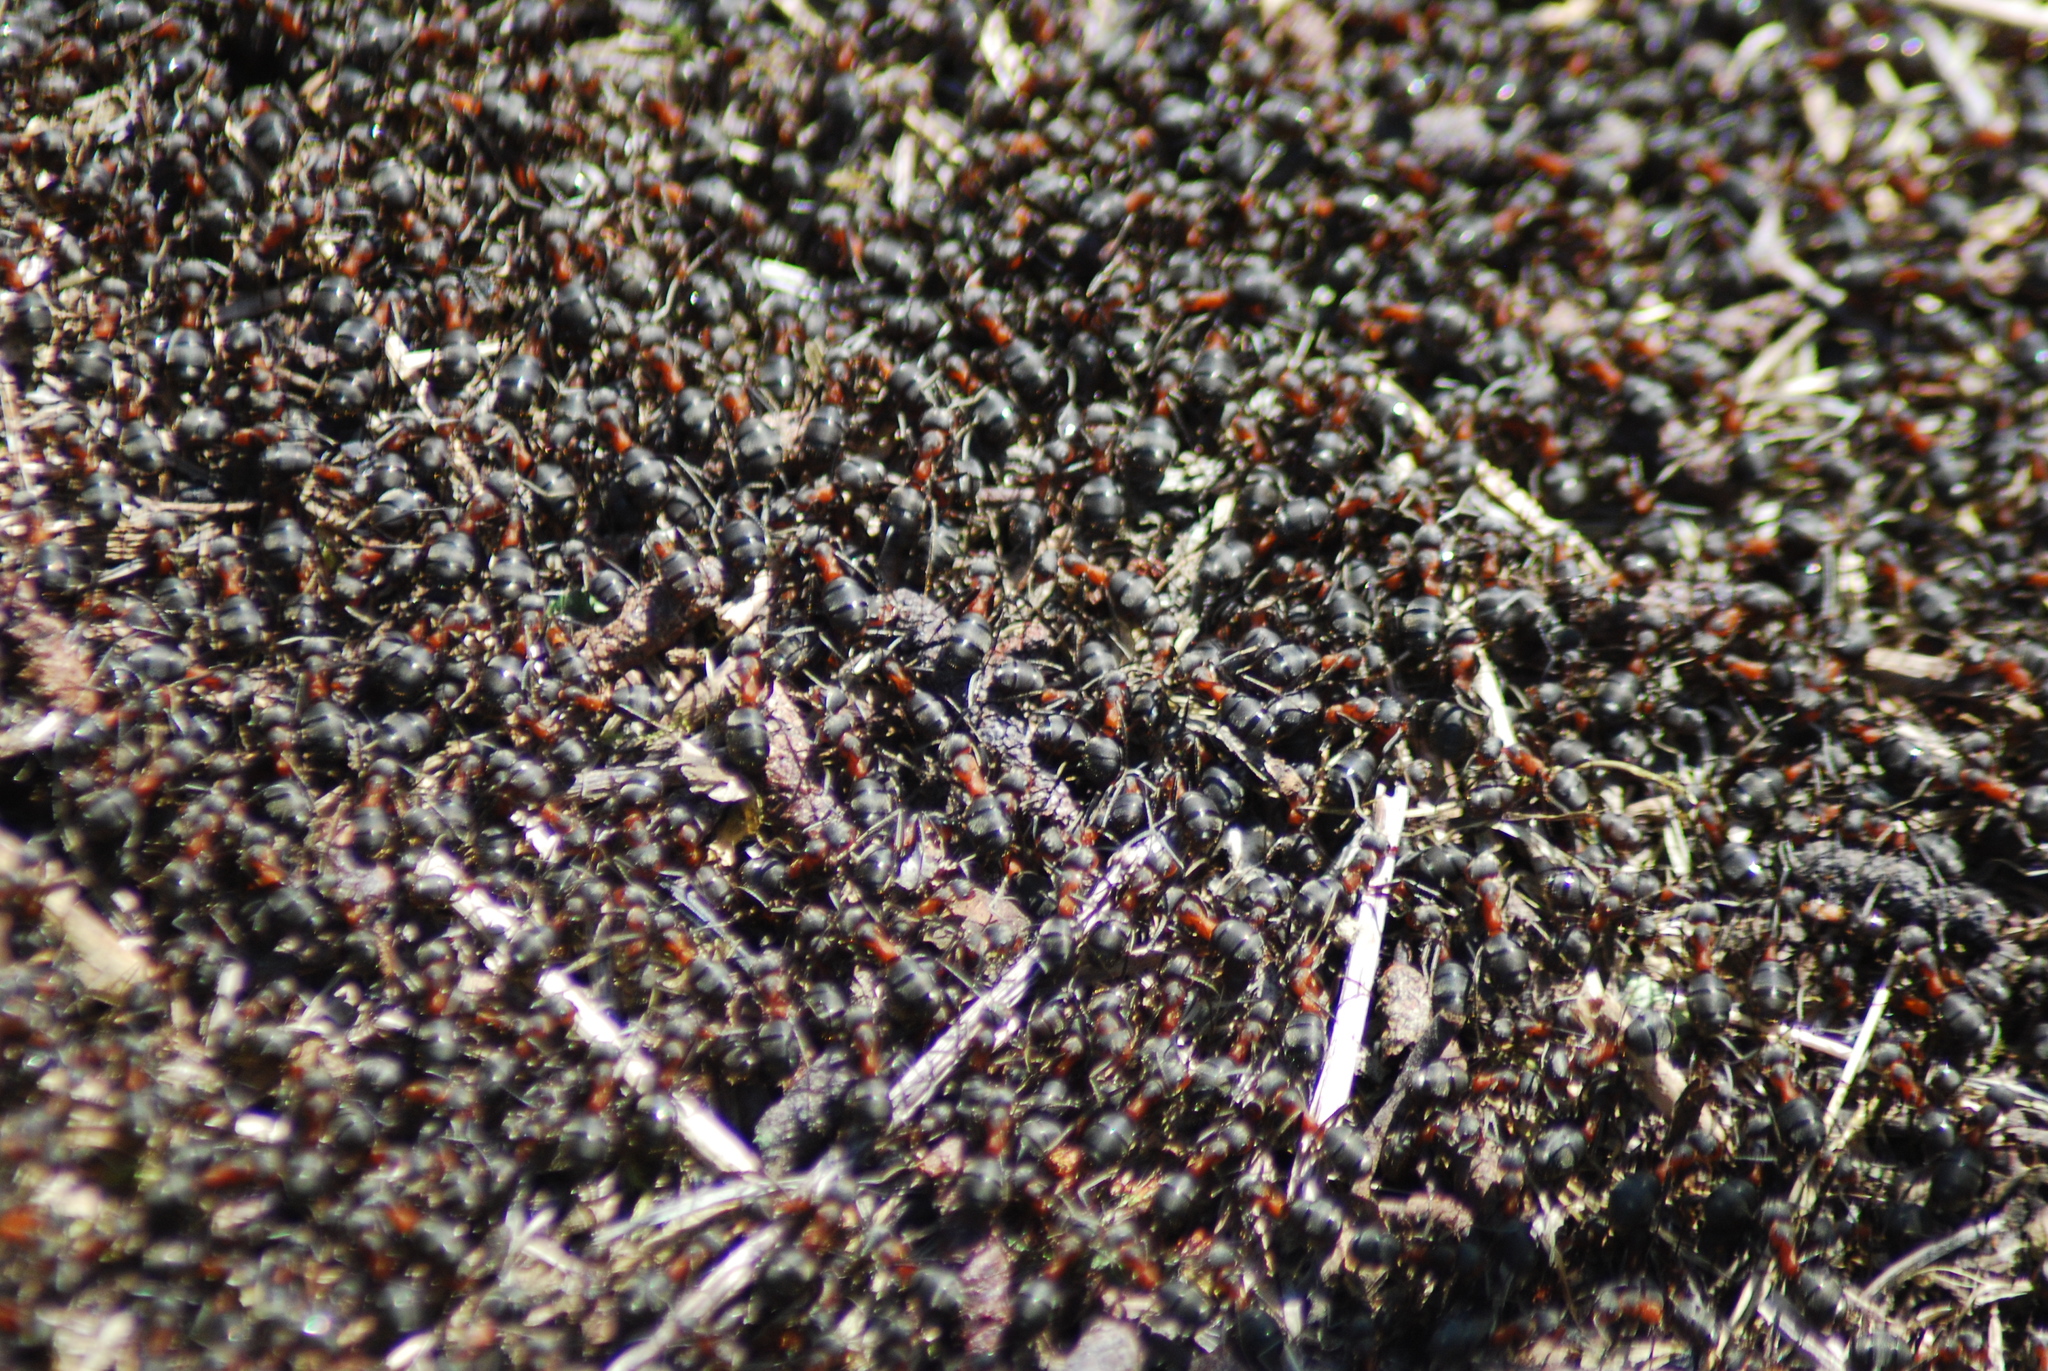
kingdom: Animalia
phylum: Arthropoda
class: Insecta
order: Hymenoptera
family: Formicidae
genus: Formica
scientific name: Formica rufa
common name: Red wood ant
